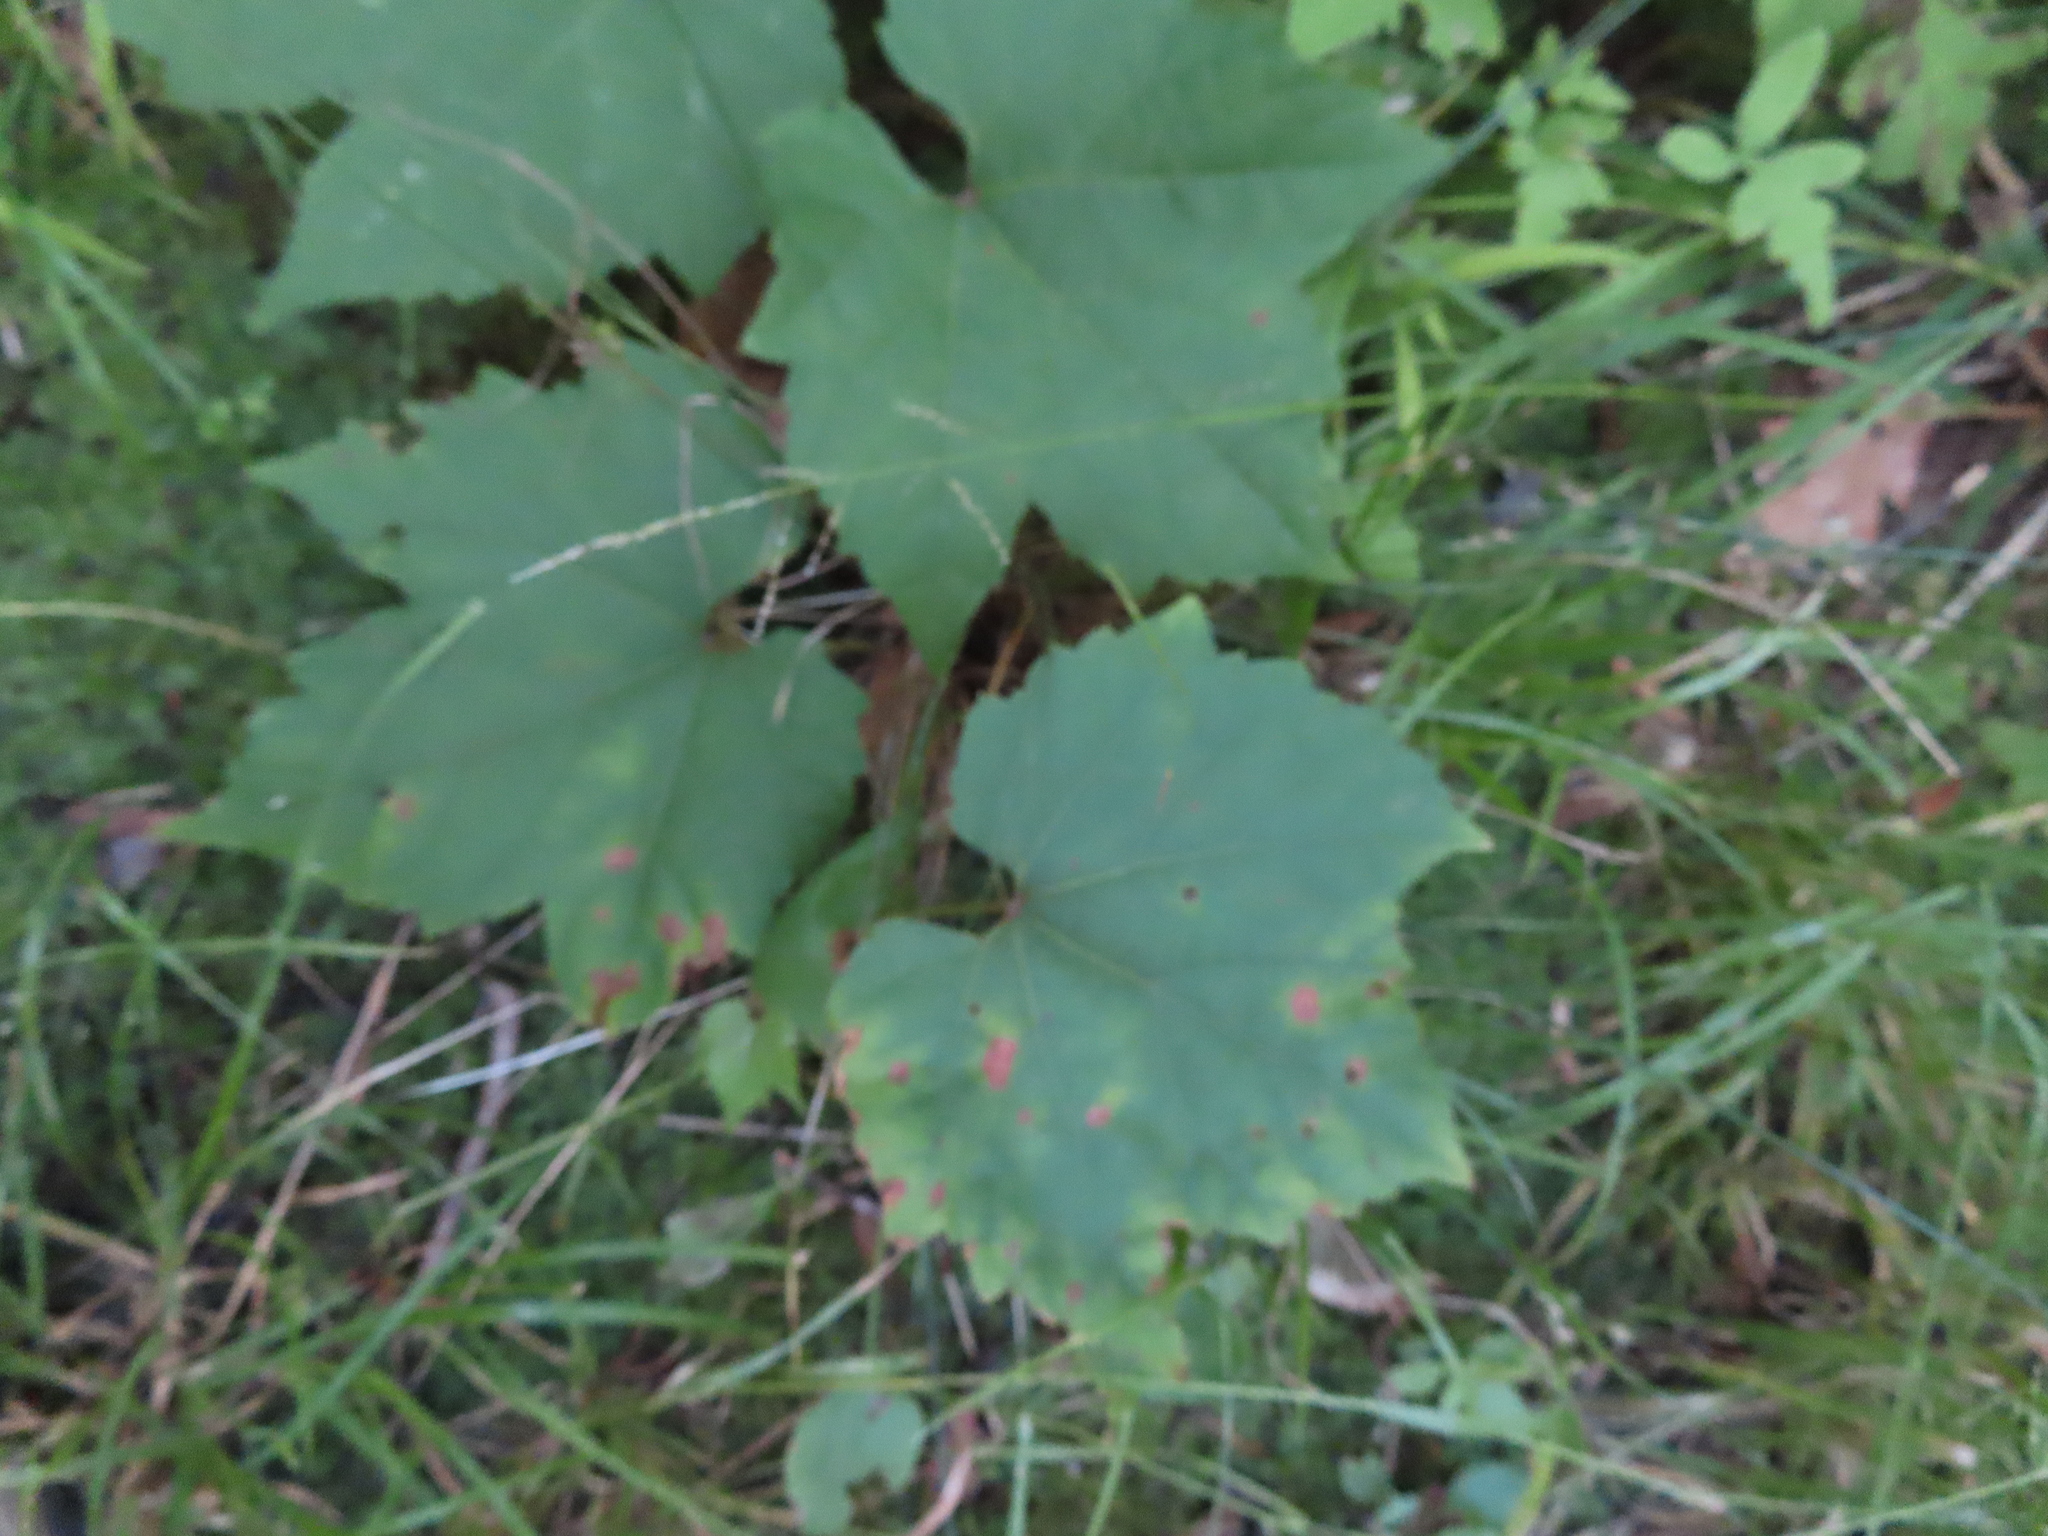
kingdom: Plantae
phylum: Tracheophyta
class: Magnoliopsida
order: Vitales
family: Vitaceae
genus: Vitis
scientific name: Vitis riparia
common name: Frost grape
